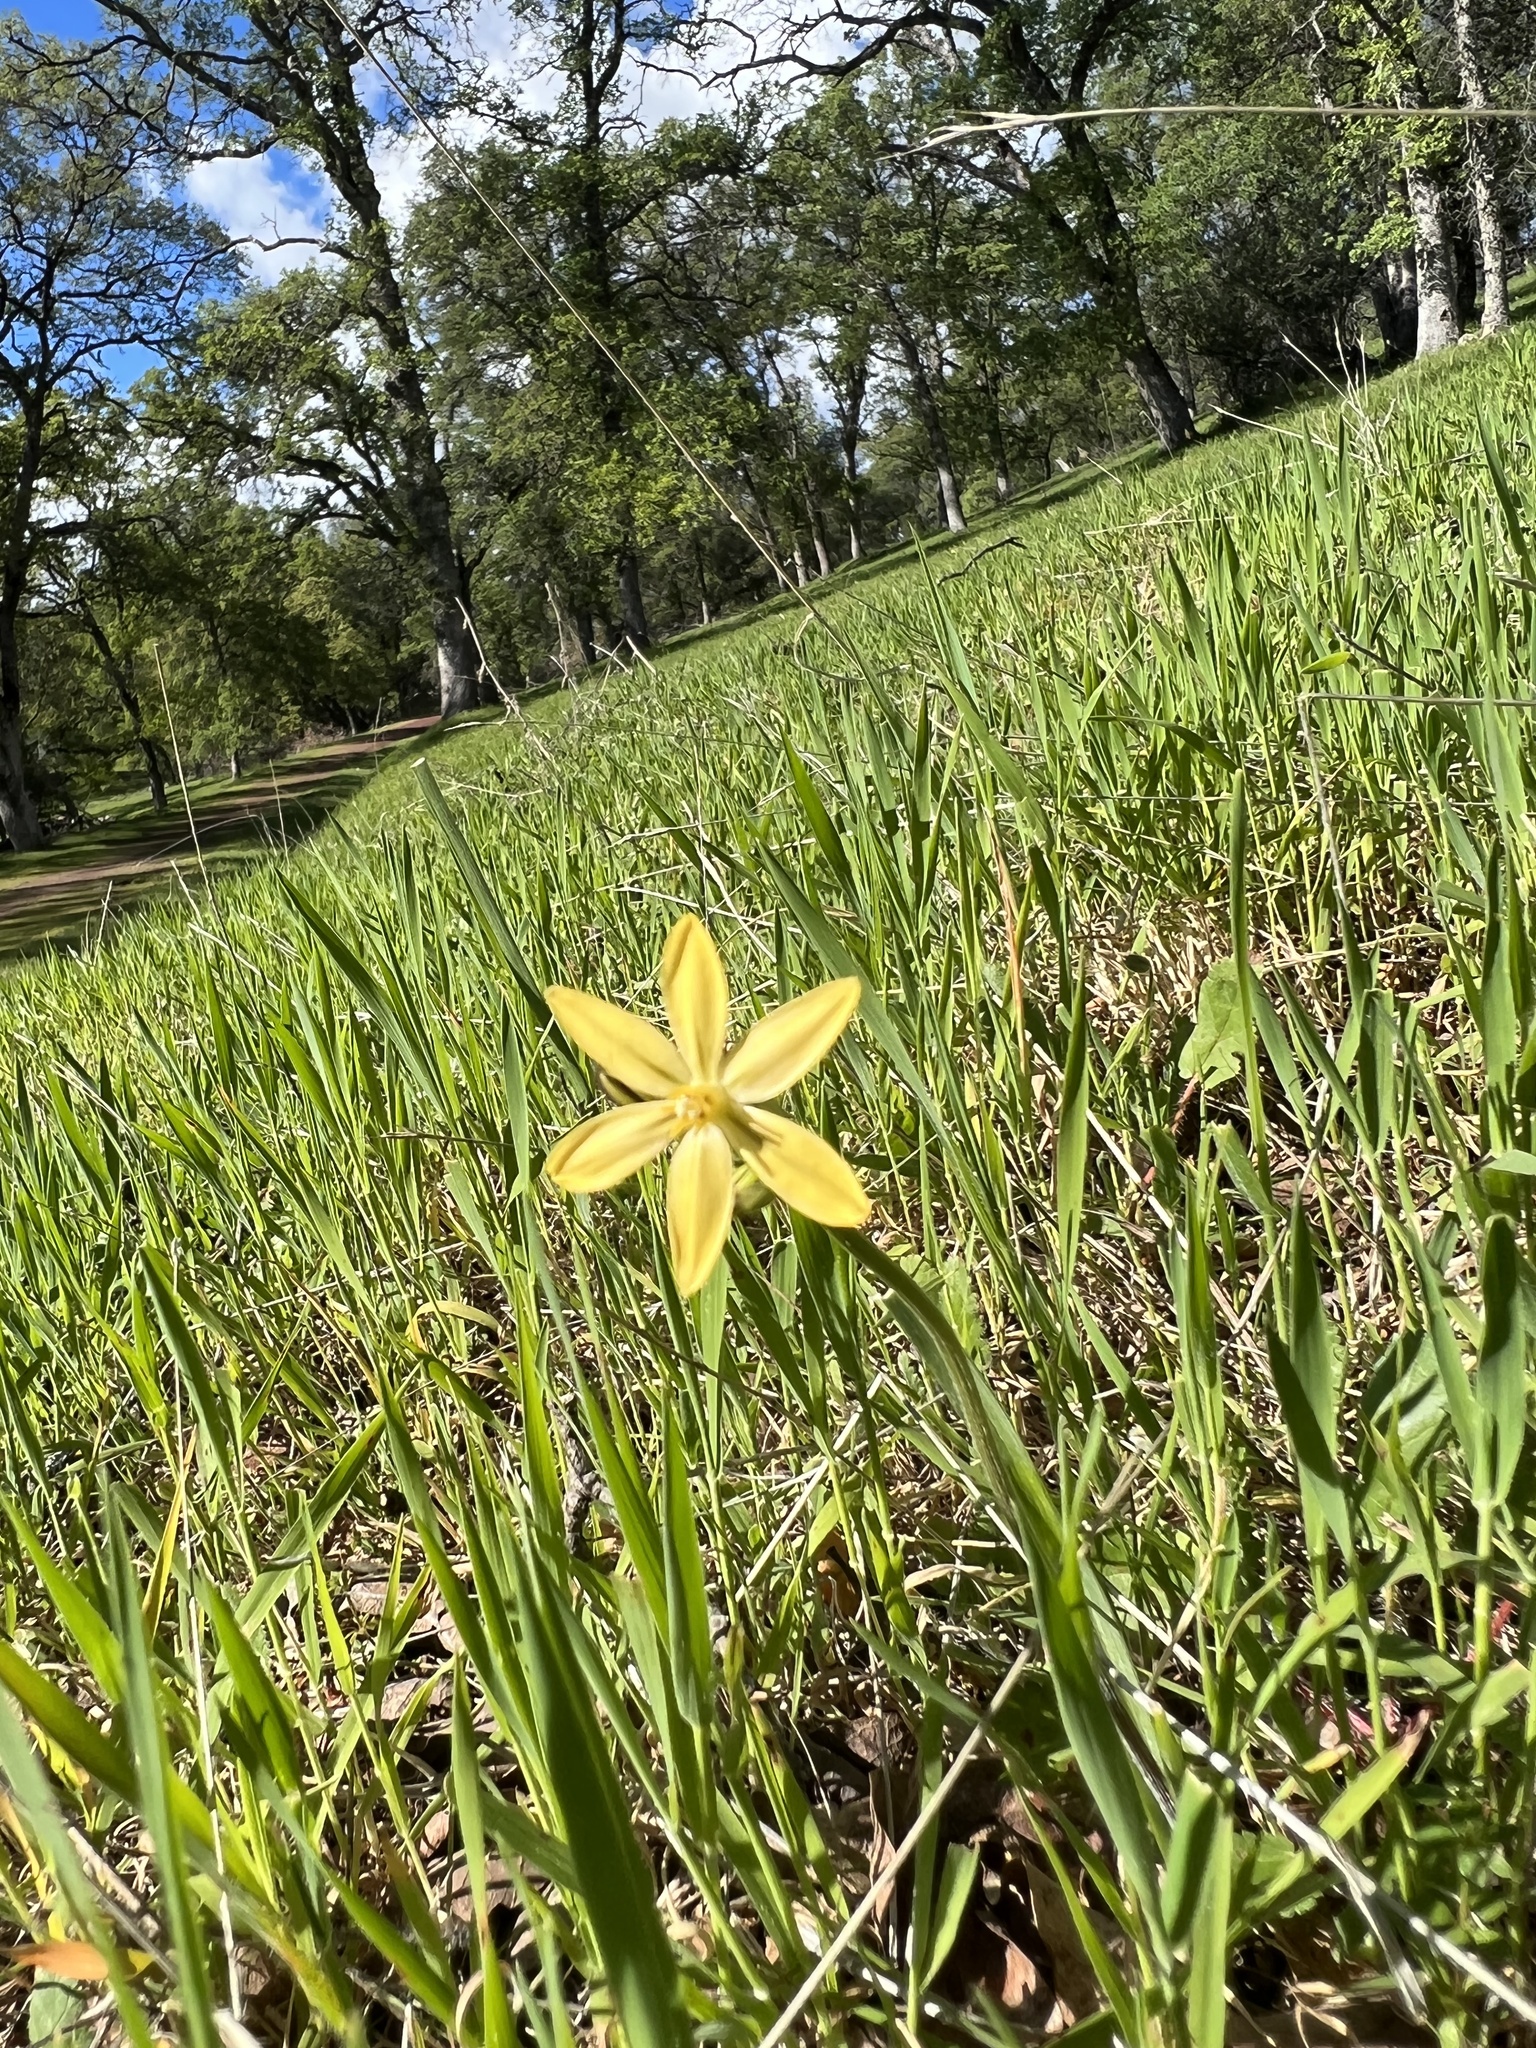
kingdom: Plantae
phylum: Tracheophyta
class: Liliopsida
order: Asparagales
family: Asparagaceae
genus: Triteleia
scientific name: Triteleia ixioides
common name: Yellow-brodiaea
